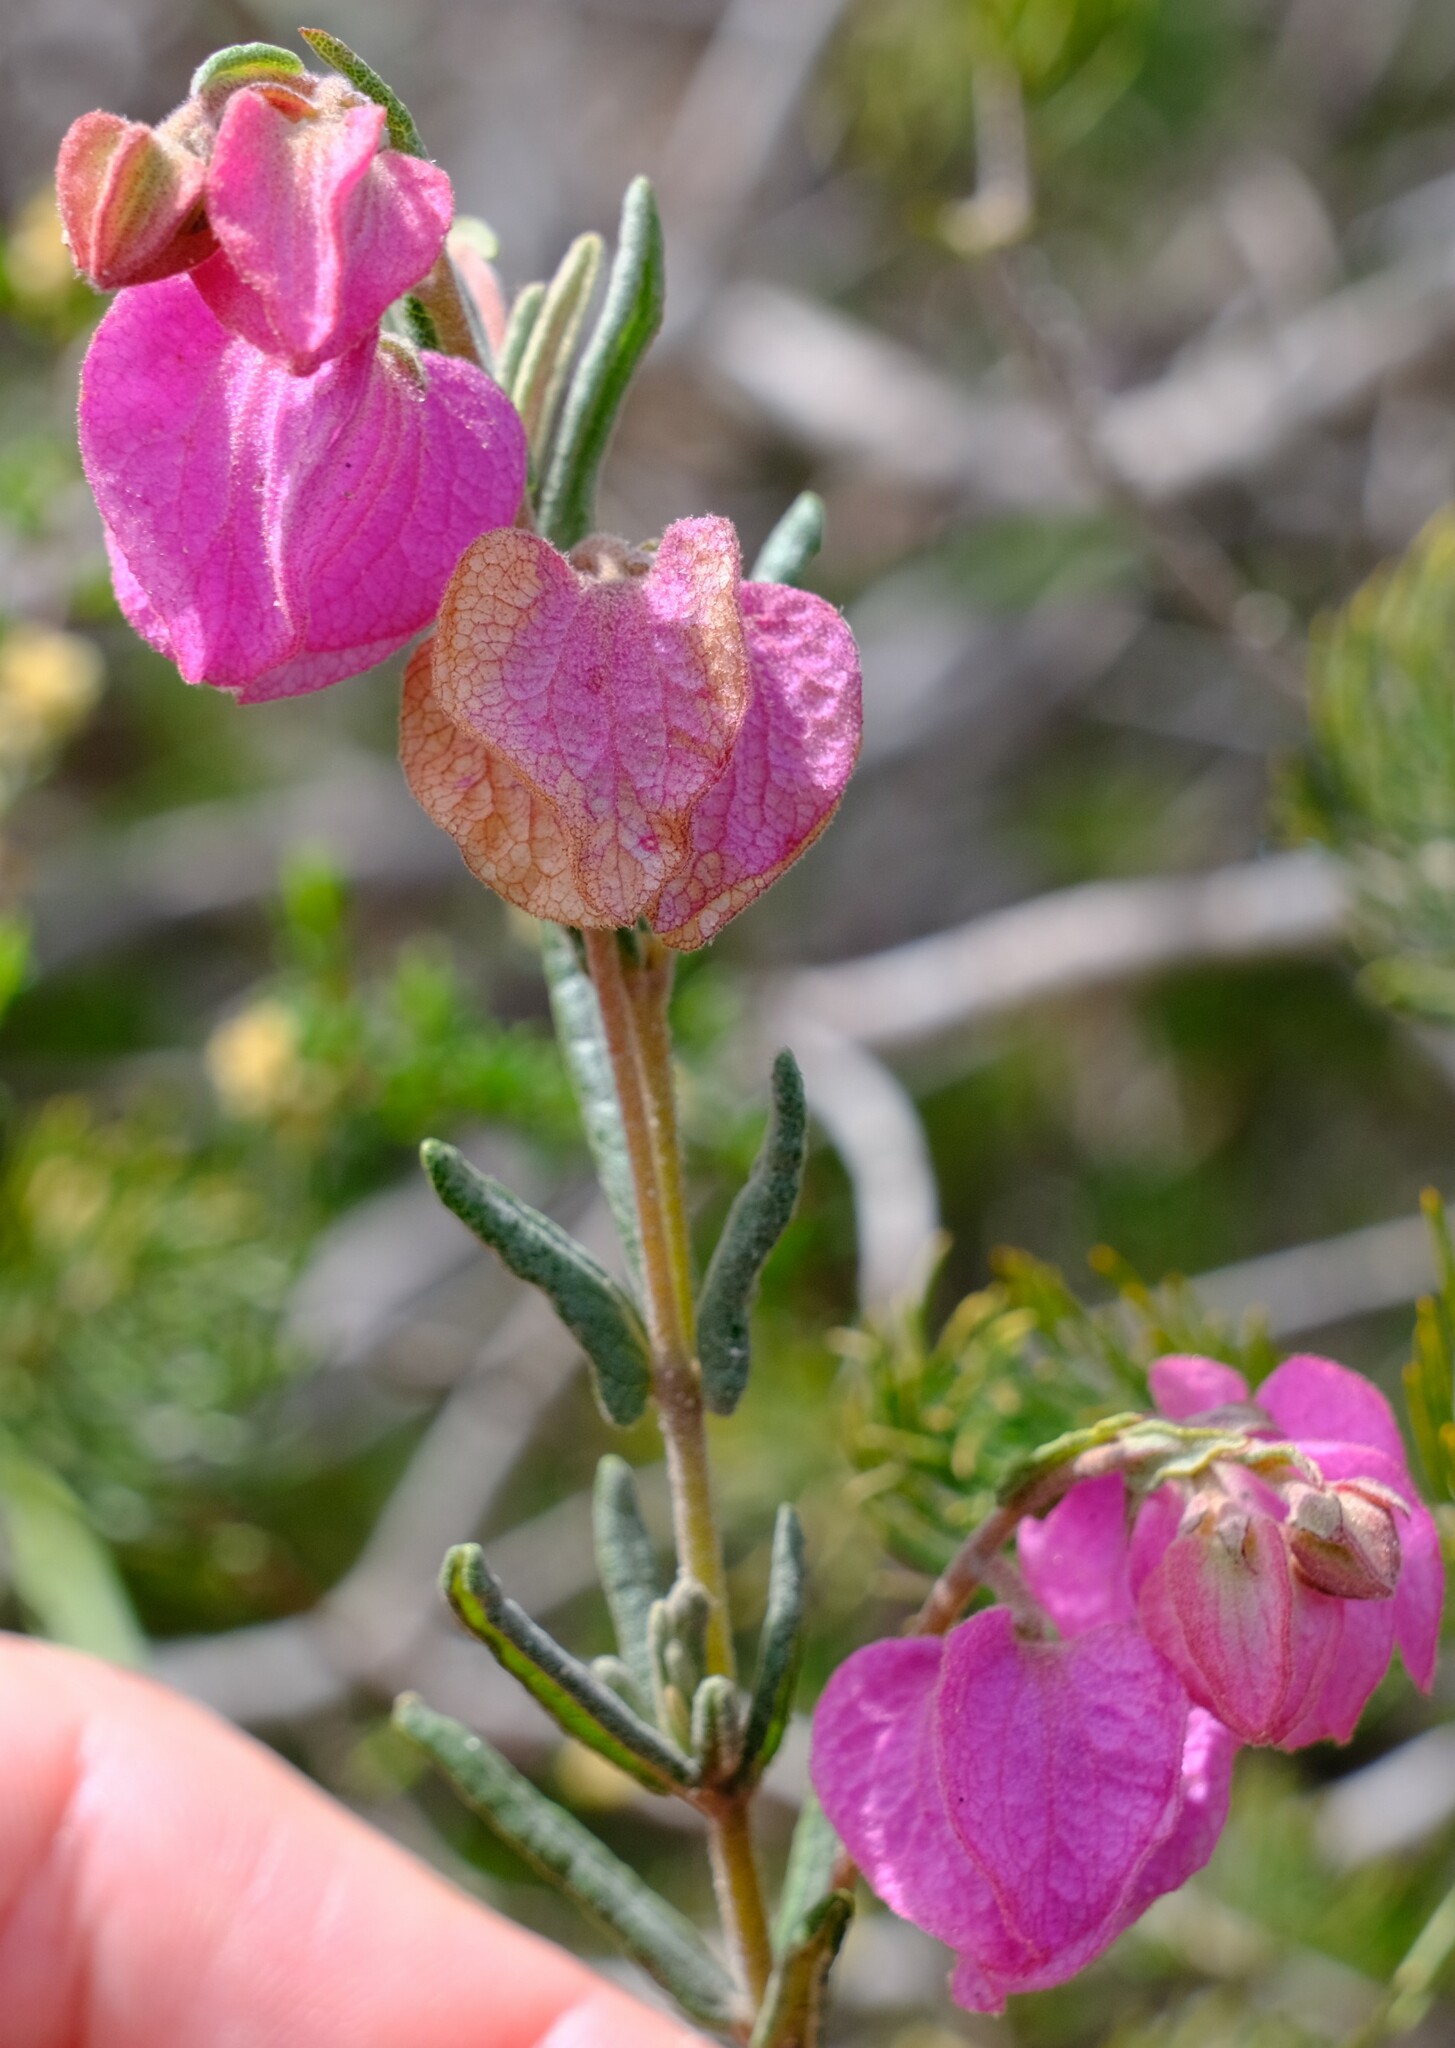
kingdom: Plantae
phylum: Tracheophyta
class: Magnoliopsida
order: Malvales
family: Malvaceae
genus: Guichenotia
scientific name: Guichenotia sarotes
